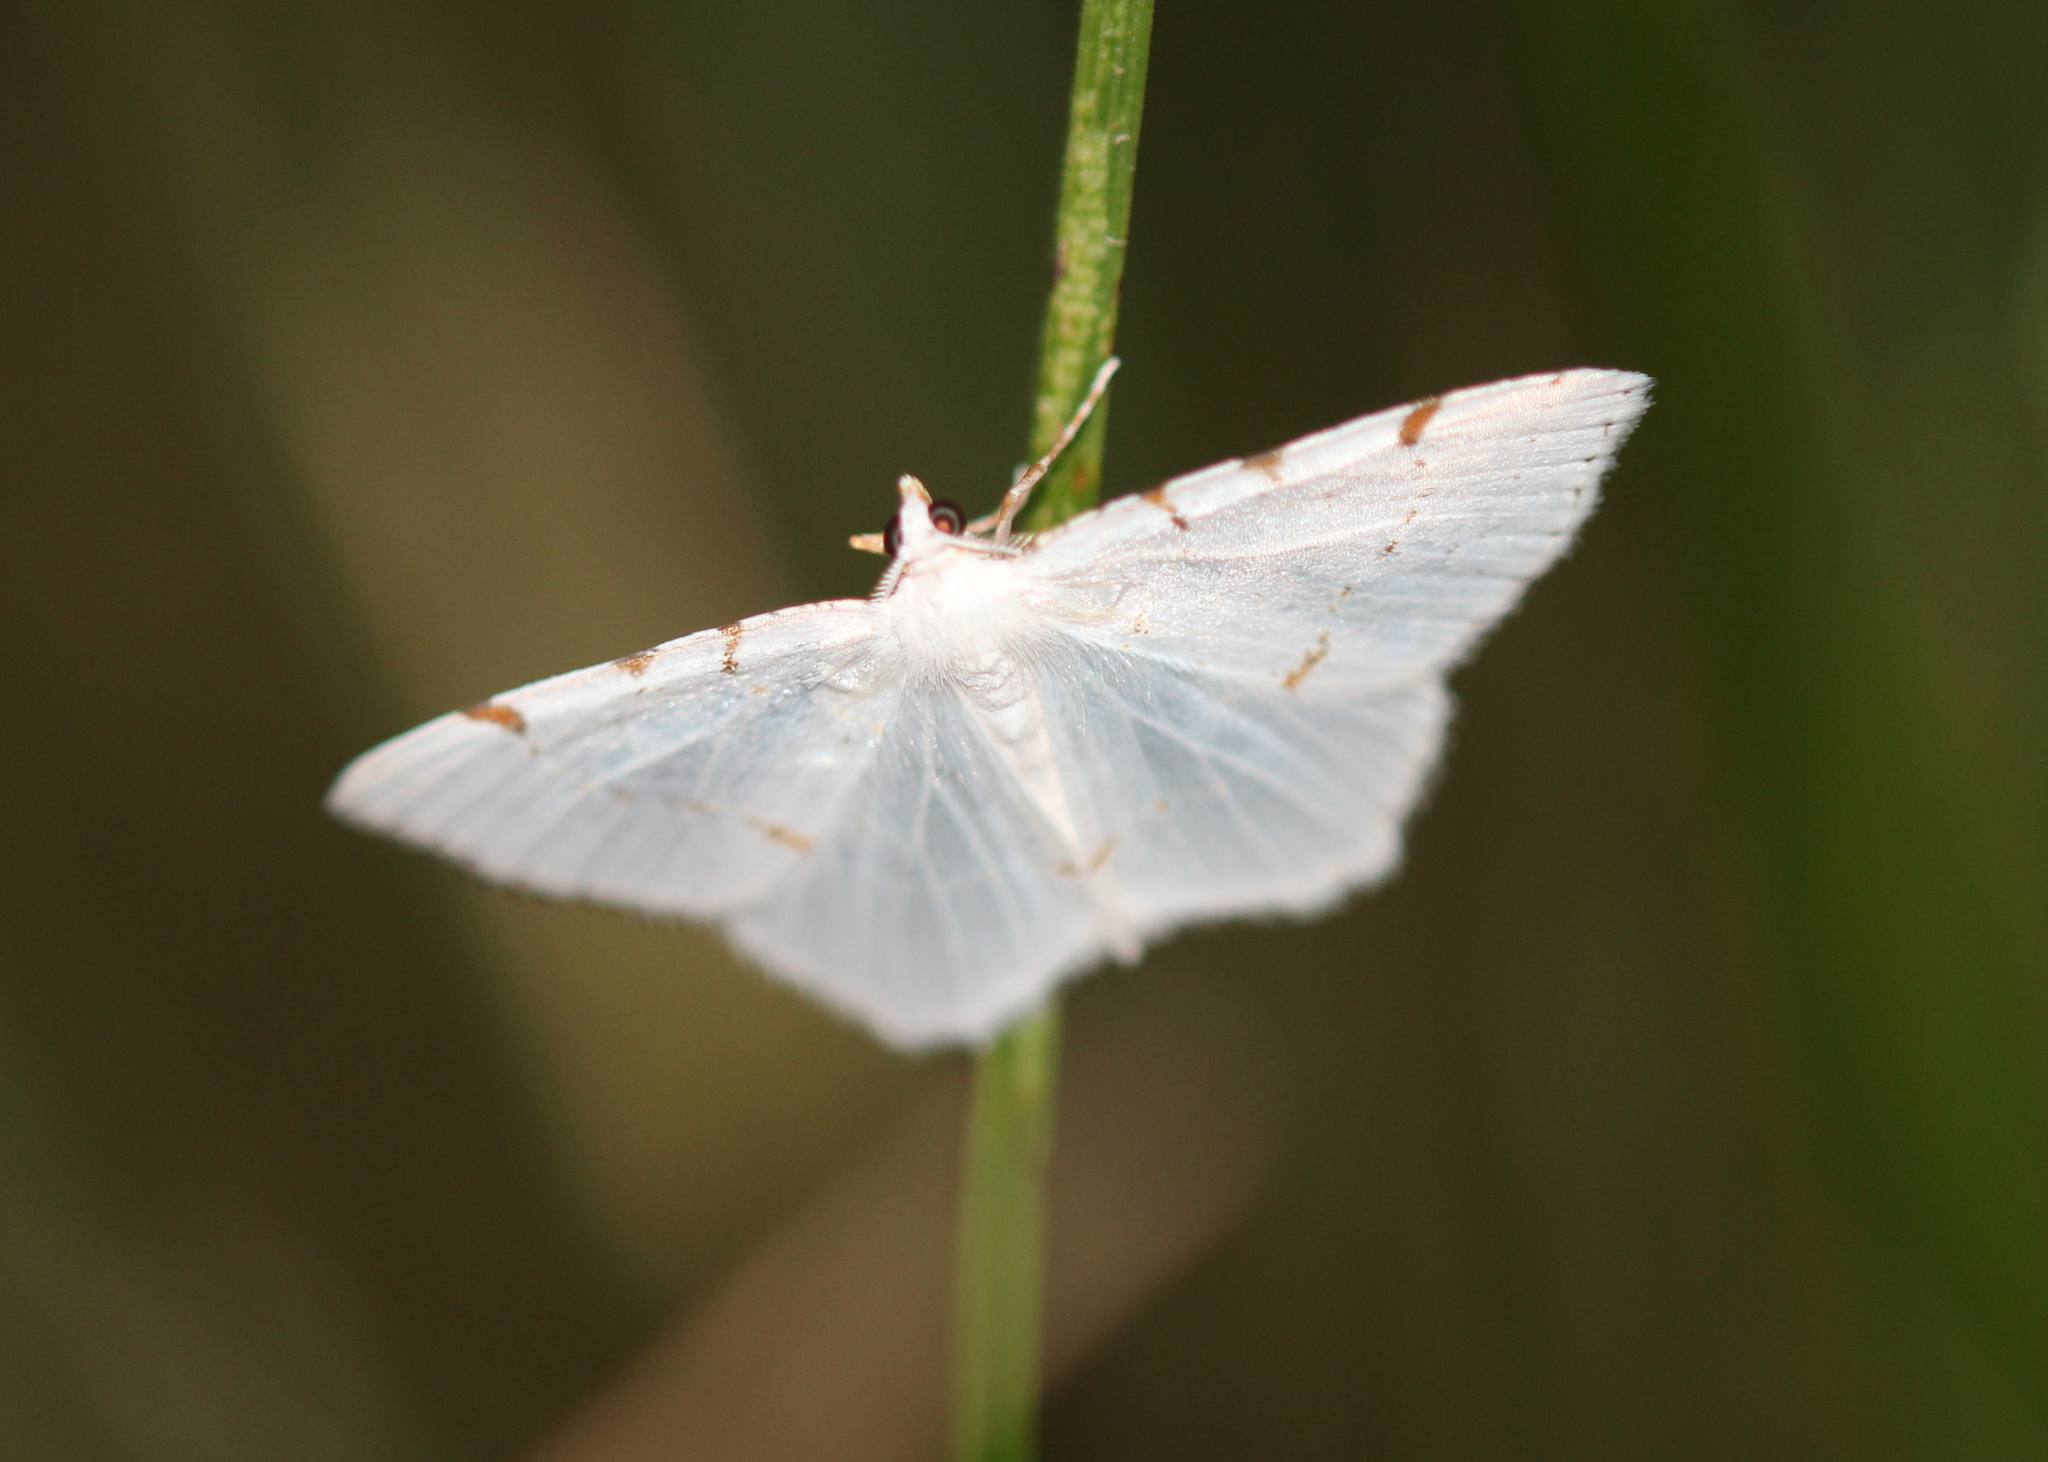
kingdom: Animalia
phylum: Arthropoda
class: Insecta
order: Lepidoptera
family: Geometridae
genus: Macaria
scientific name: Macaria pustularia
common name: Lesser maple spanworm moth
